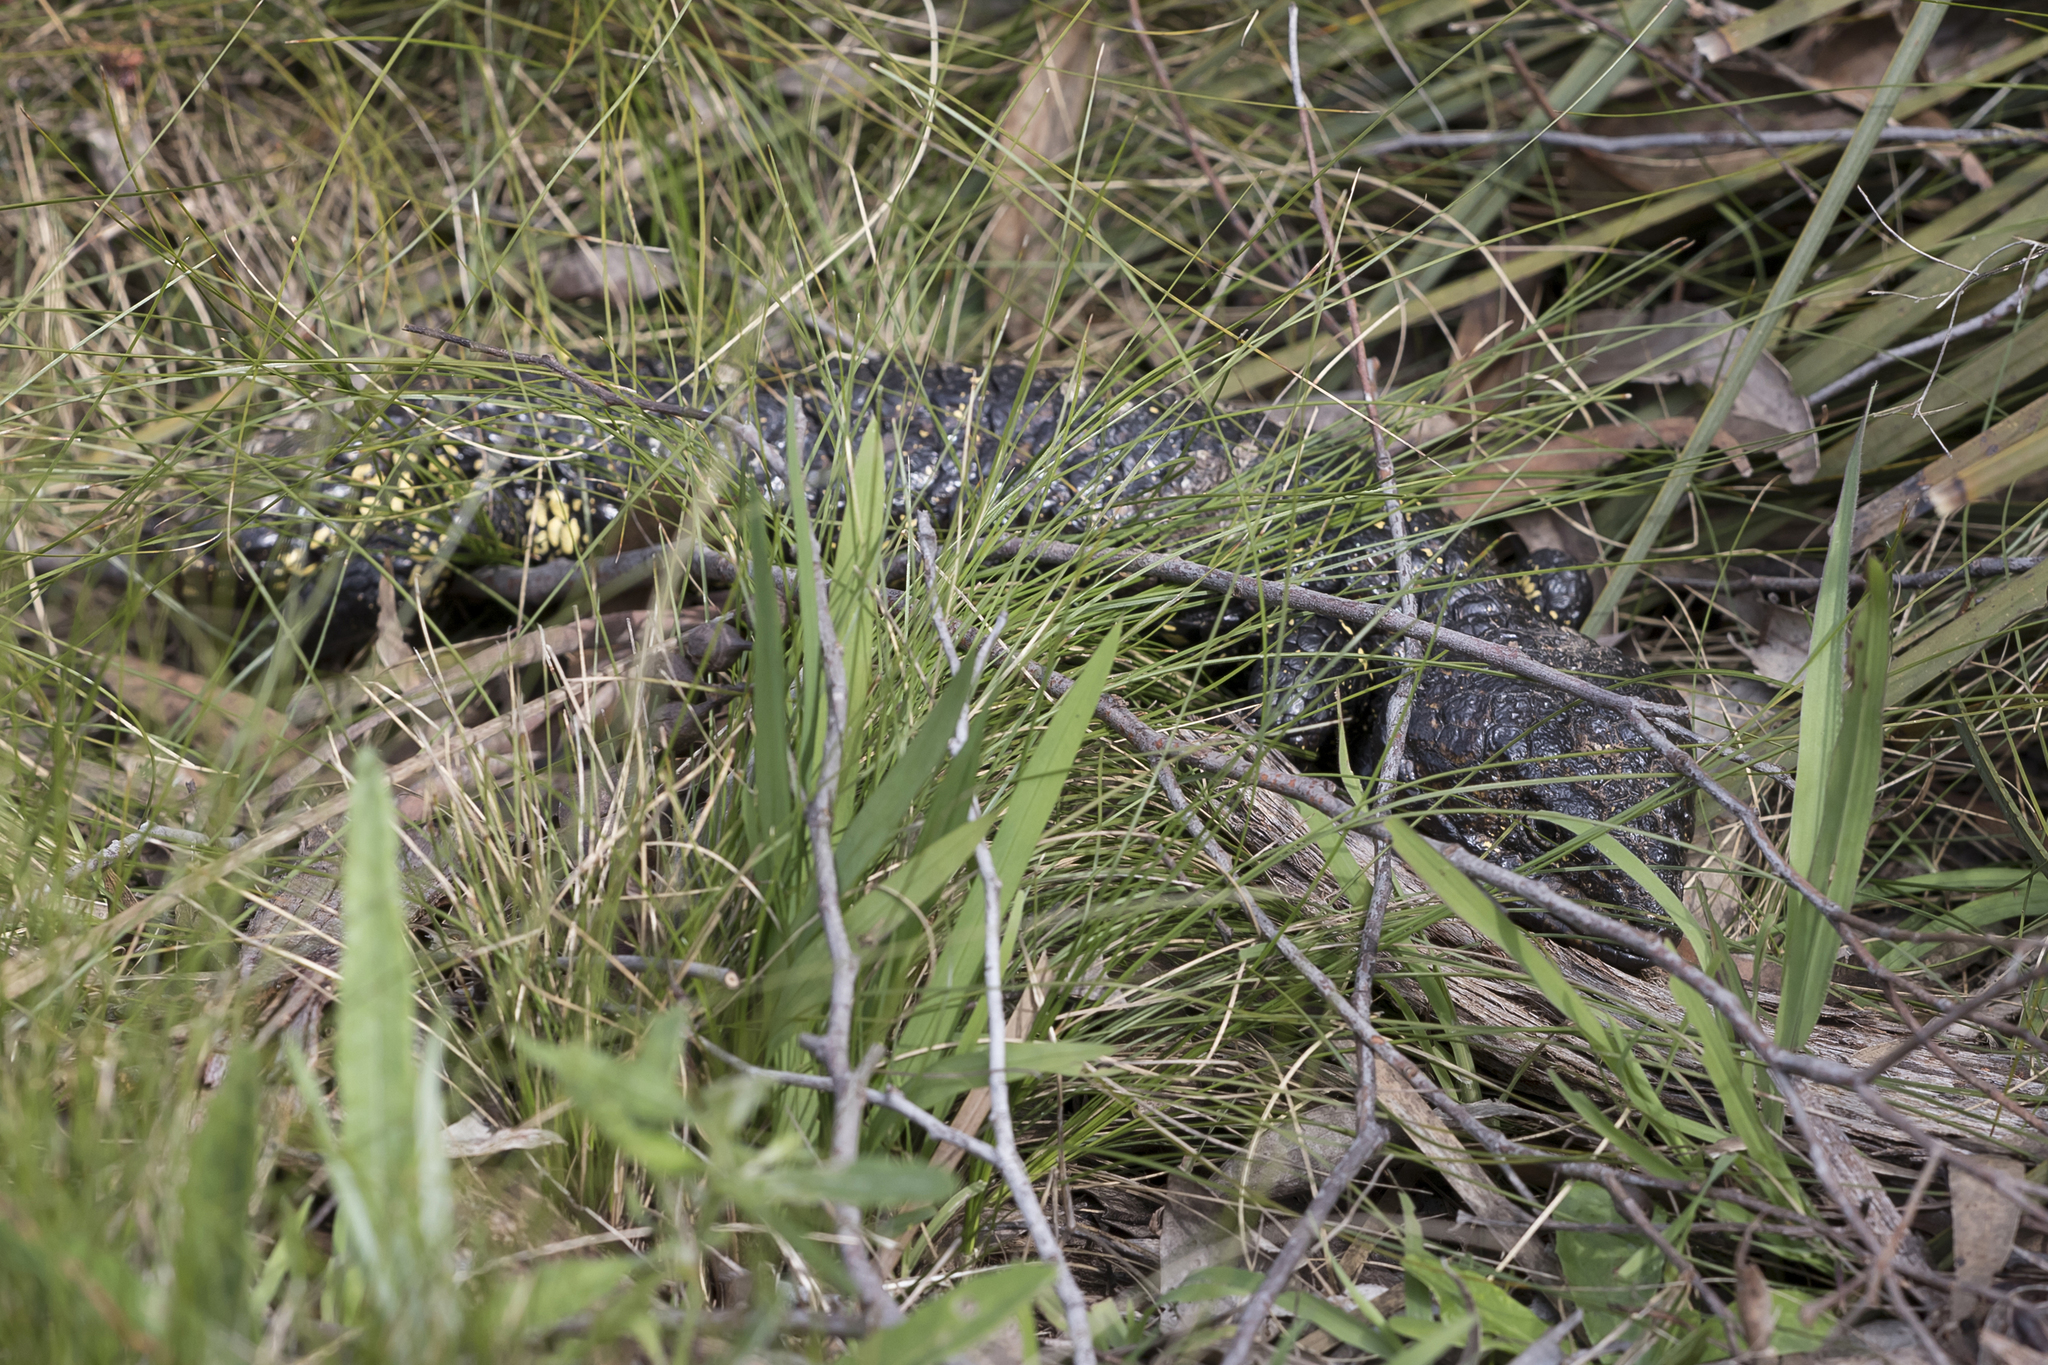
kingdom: Animalia
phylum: Chordata
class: Squamata
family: Scincidae
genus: Tiliqua
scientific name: Tiliqua rugosa
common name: Pinecone lizard
